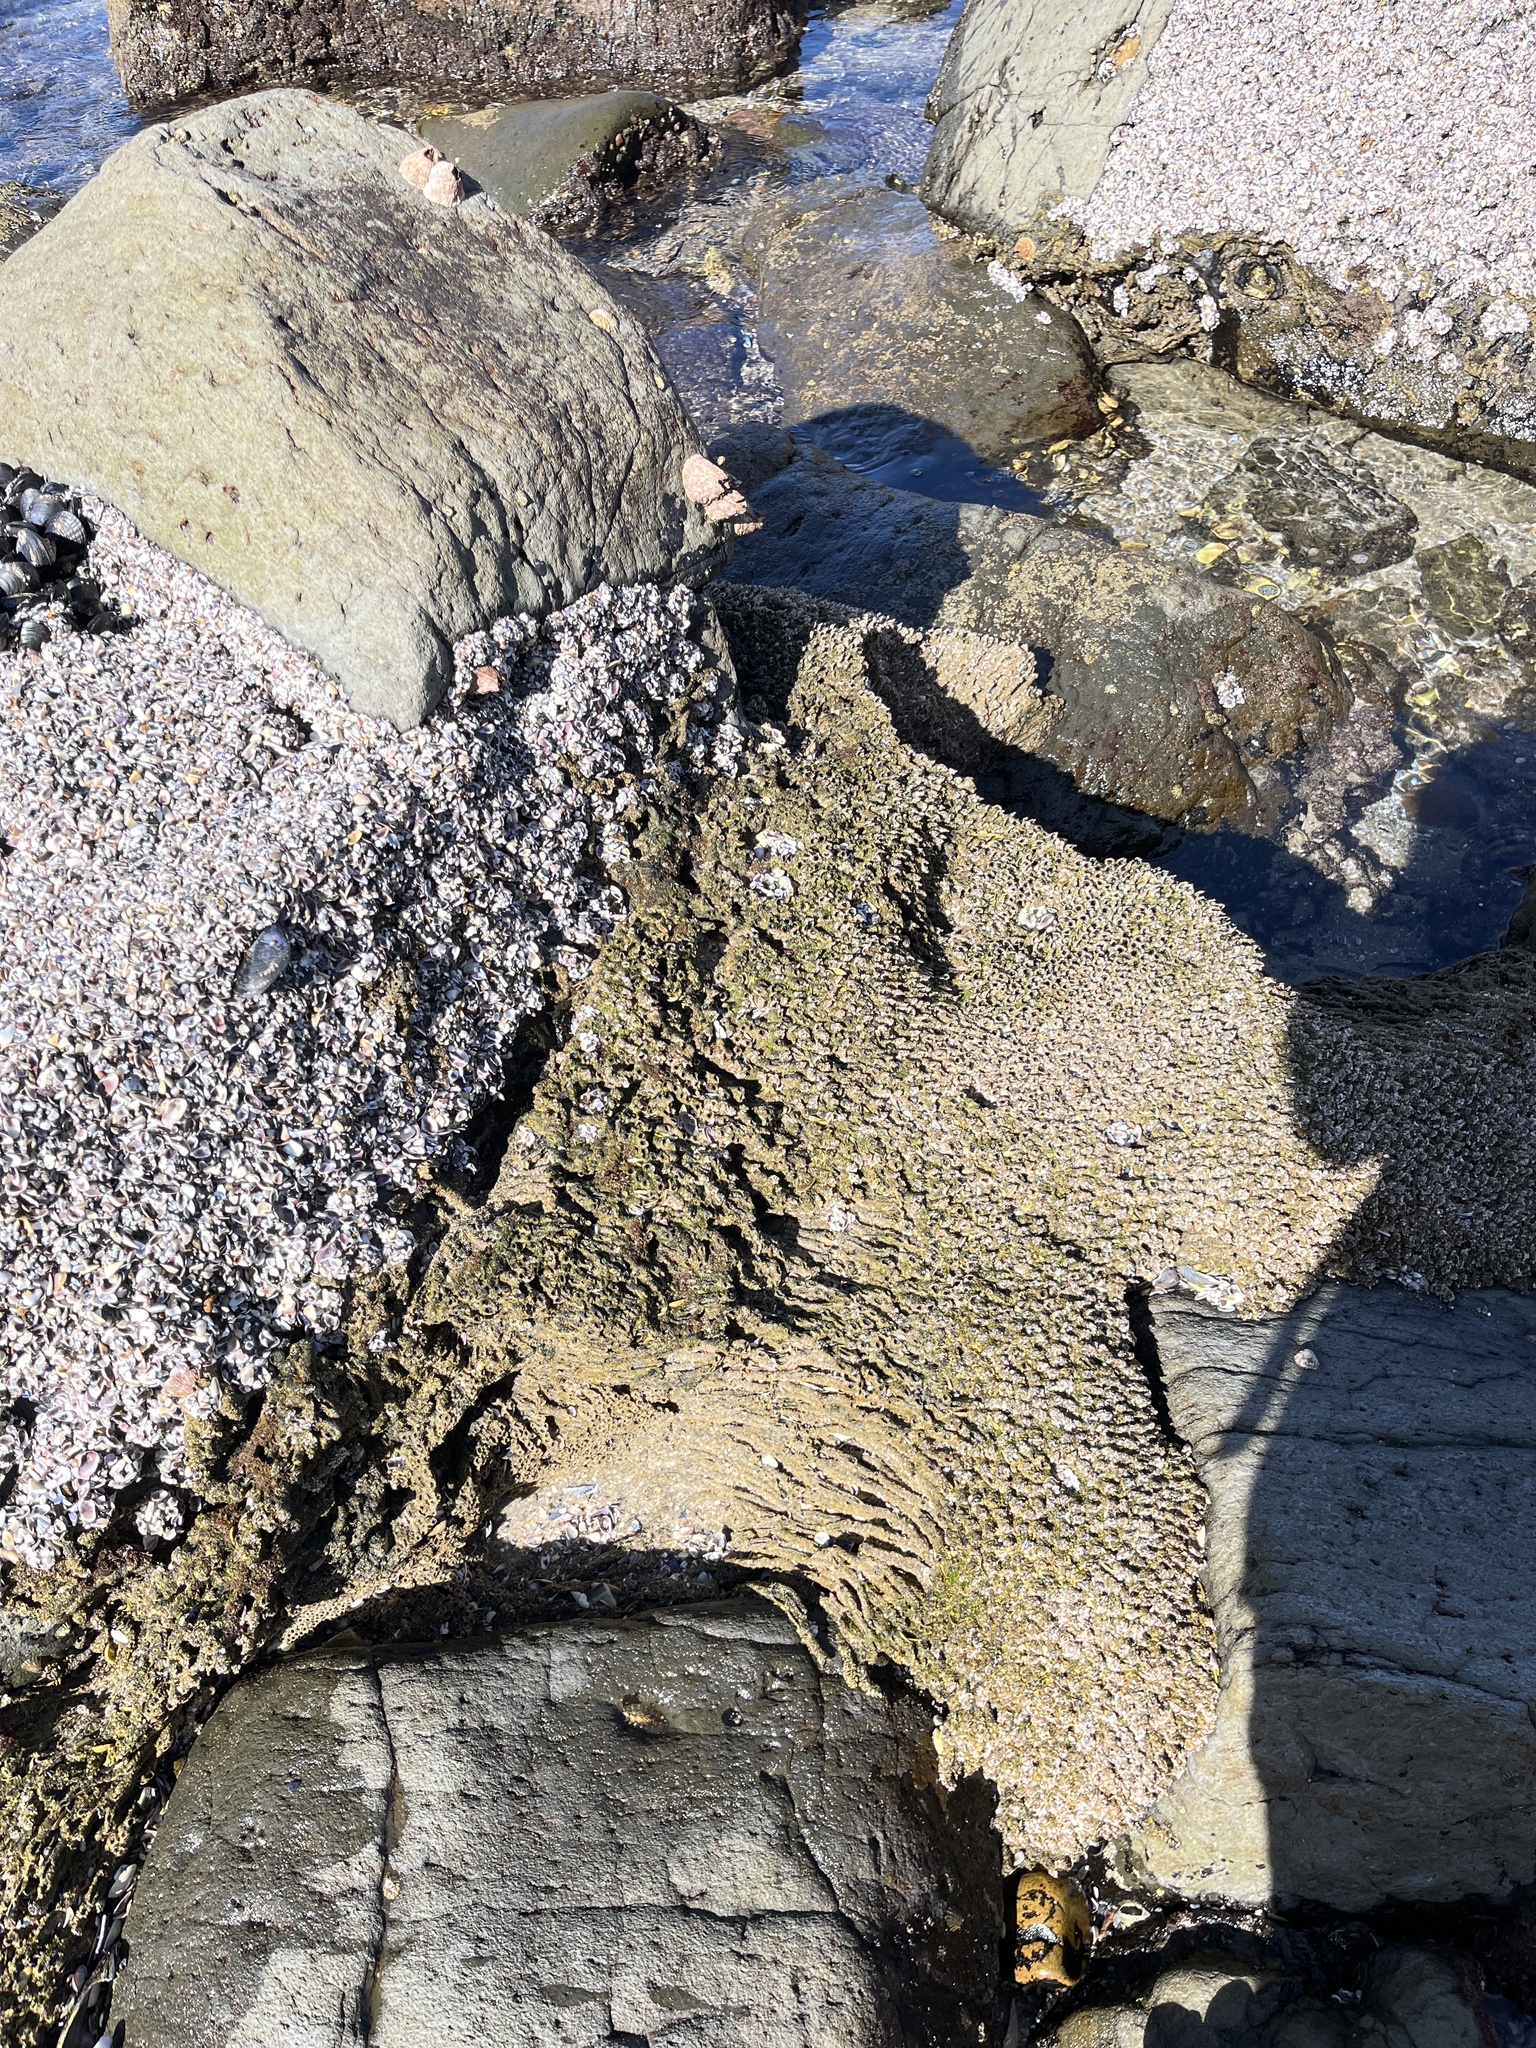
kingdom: Animalia
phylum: Annelida
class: Polychaeta
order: Sabellida
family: Sabellariidae
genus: Phragmatopoma
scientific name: Phragmatopoma californica
